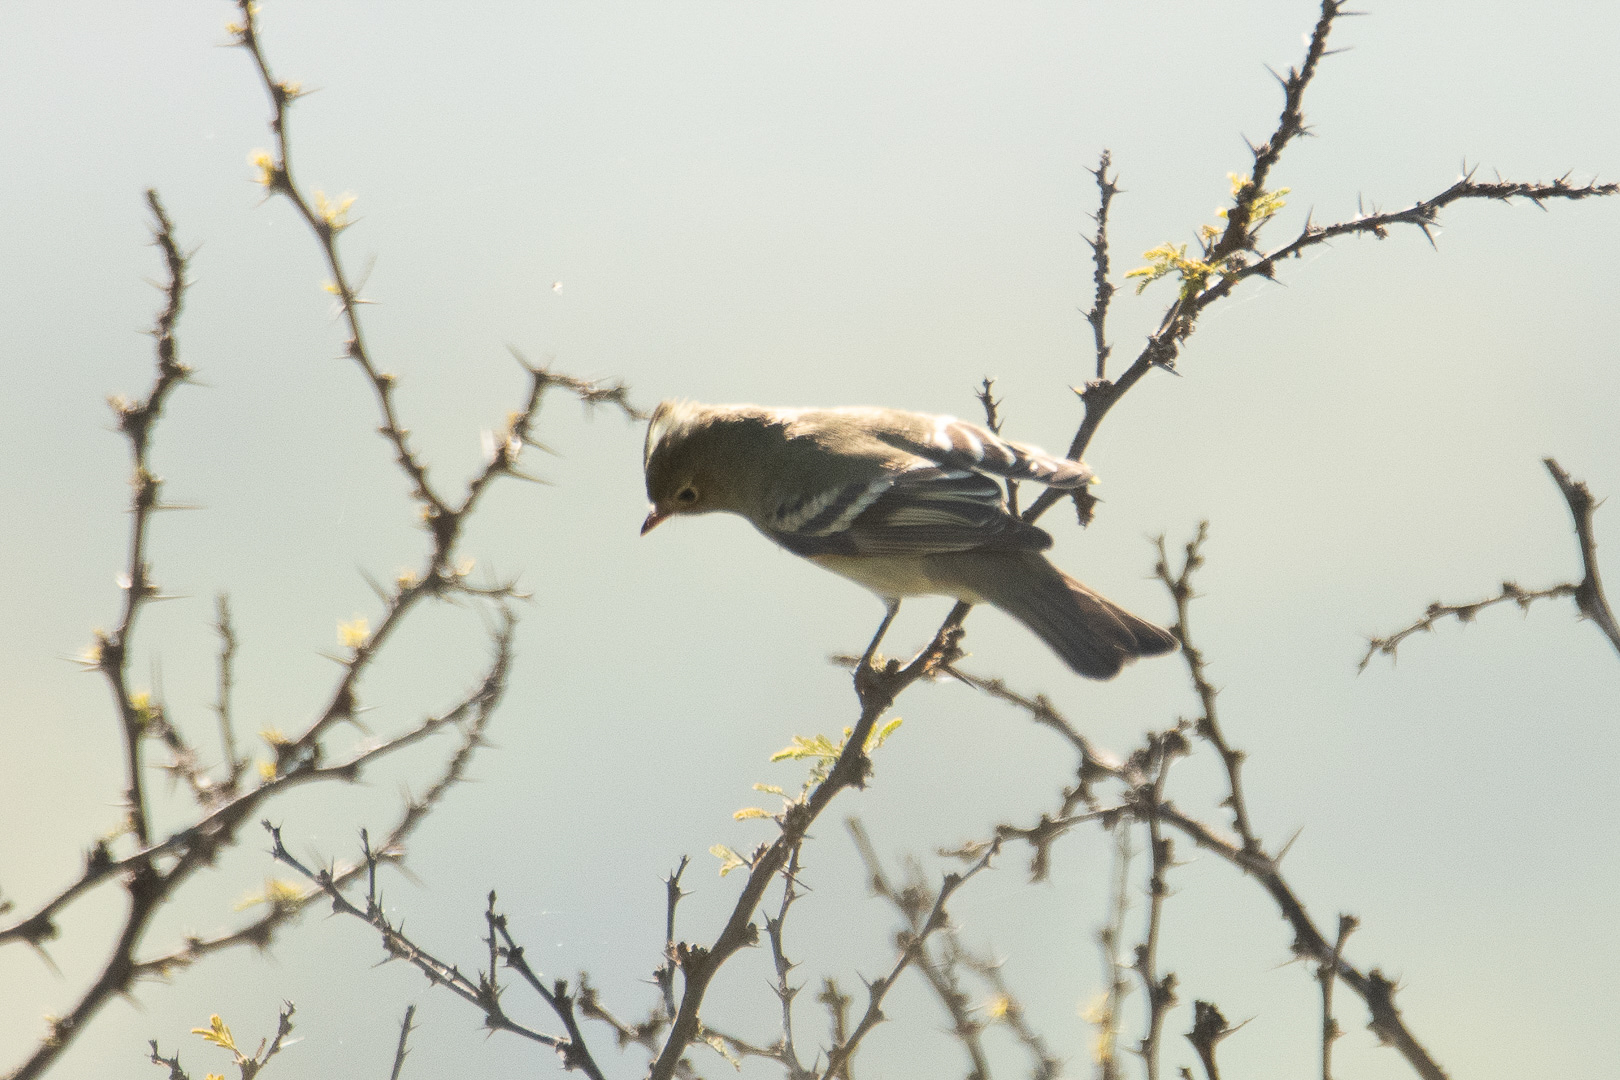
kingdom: Animalia
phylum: Chordata
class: Aves
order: Passeriformes
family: Tyrannidae
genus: Elaenia
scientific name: Elaenia albiceps
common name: White-crested elaenia
